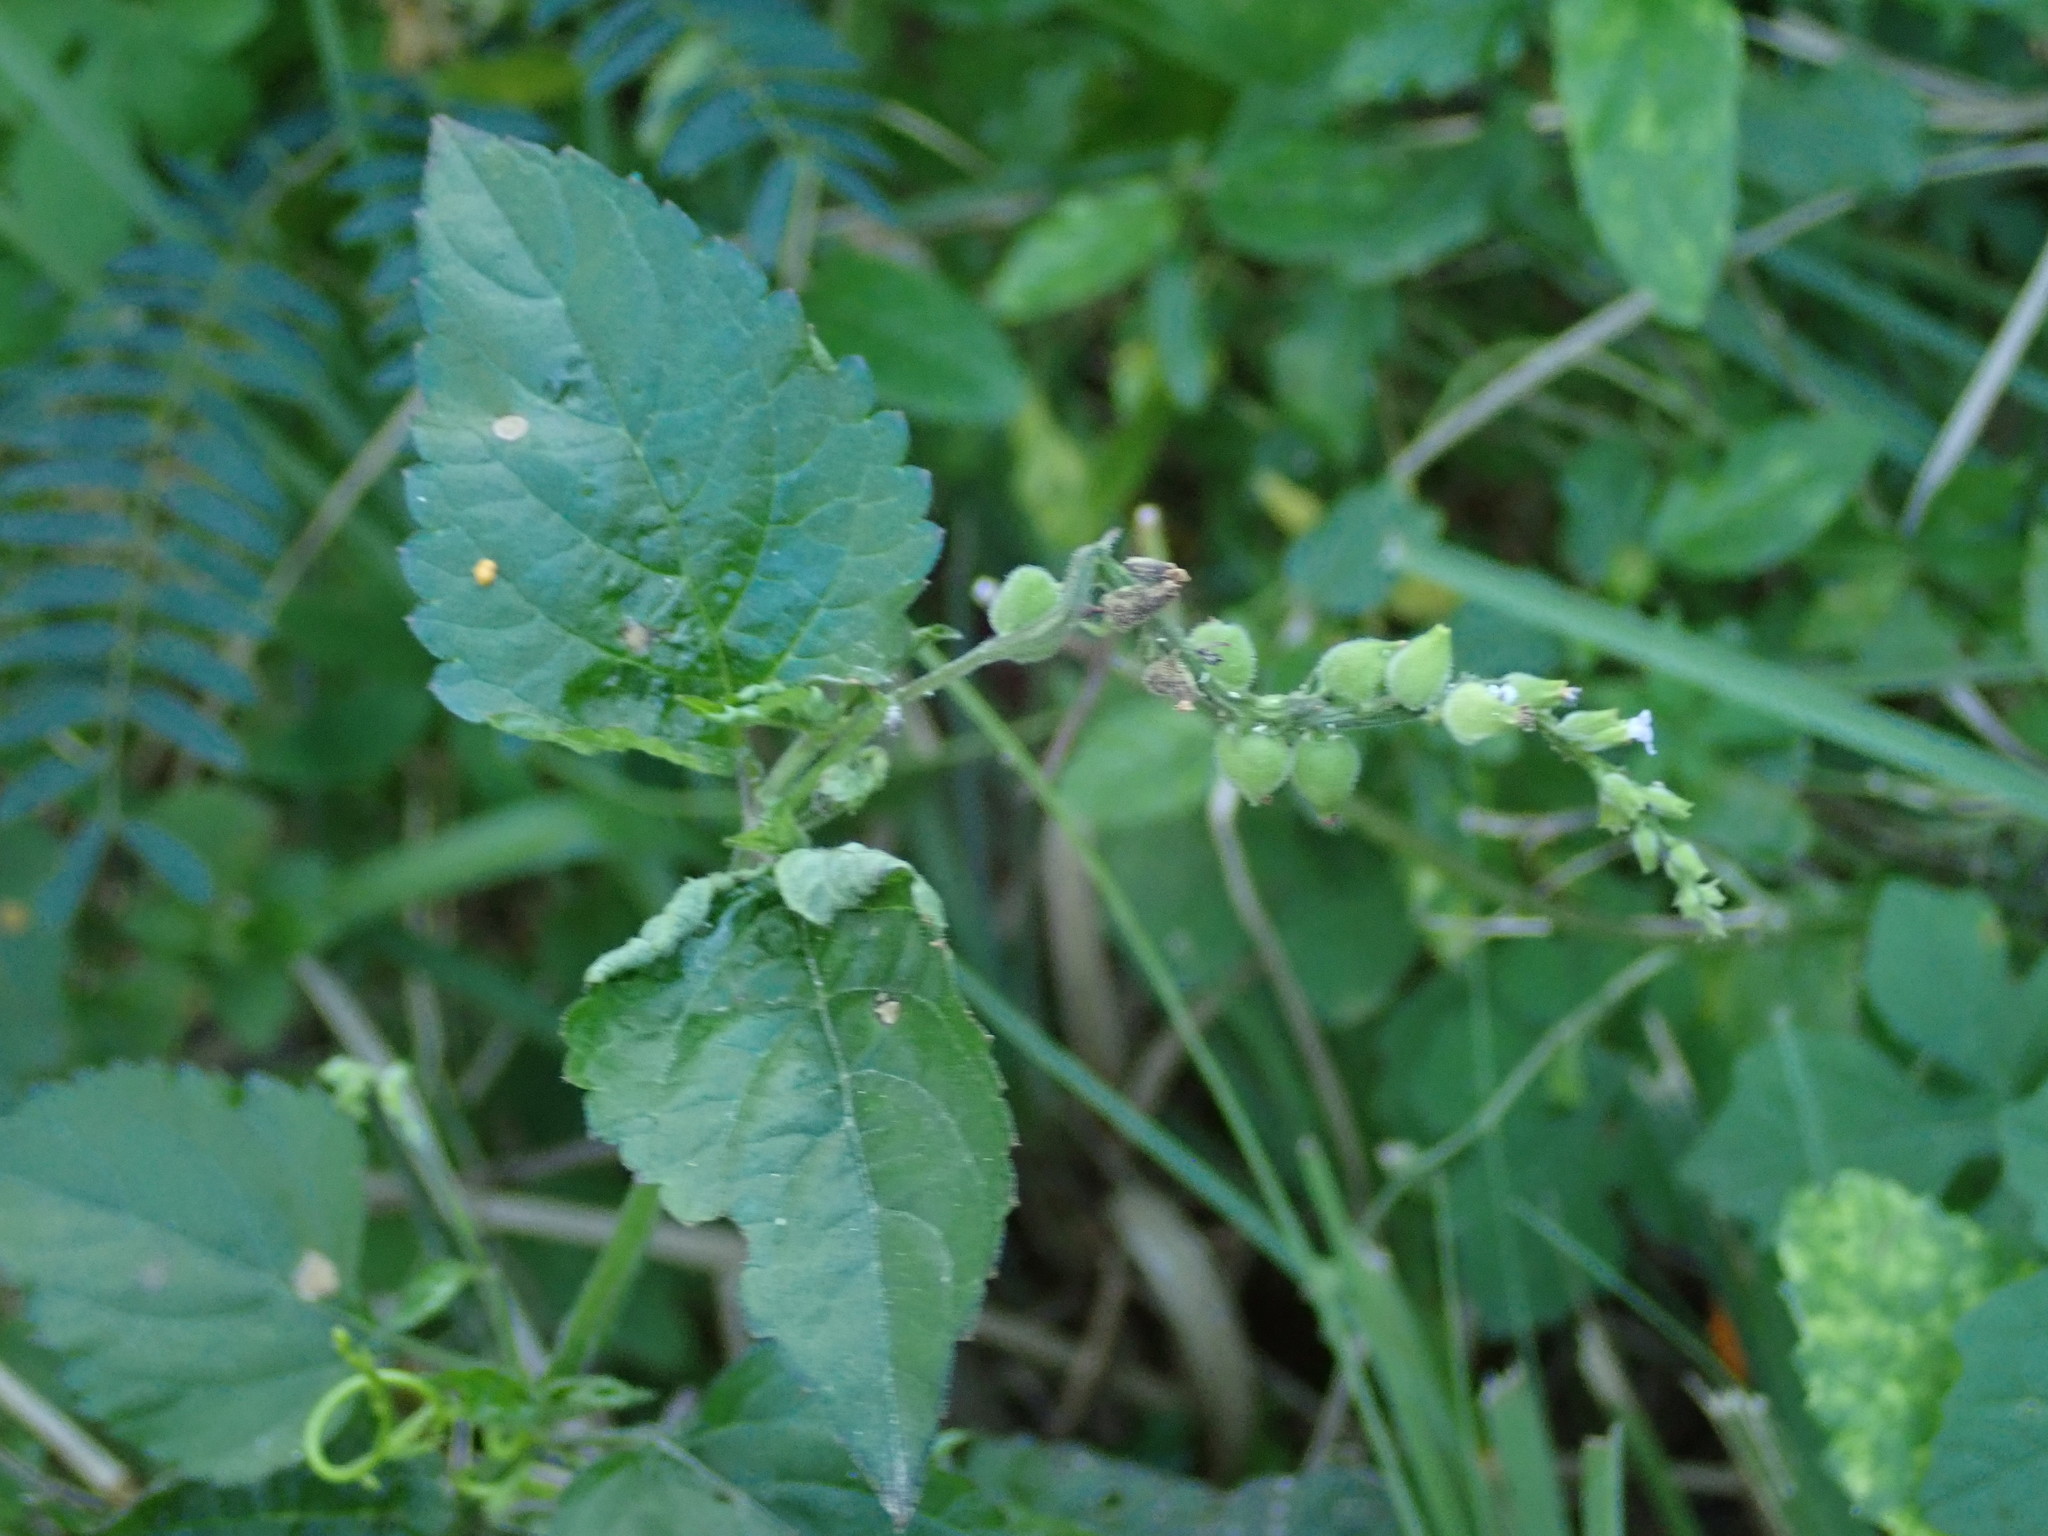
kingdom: Plantae
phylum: Tracheophyta
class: Magnoliopsida
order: Lamiales
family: Verbenaceae
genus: Priva
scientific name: Priva lappulacea
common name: Fasten-'pon-coat
